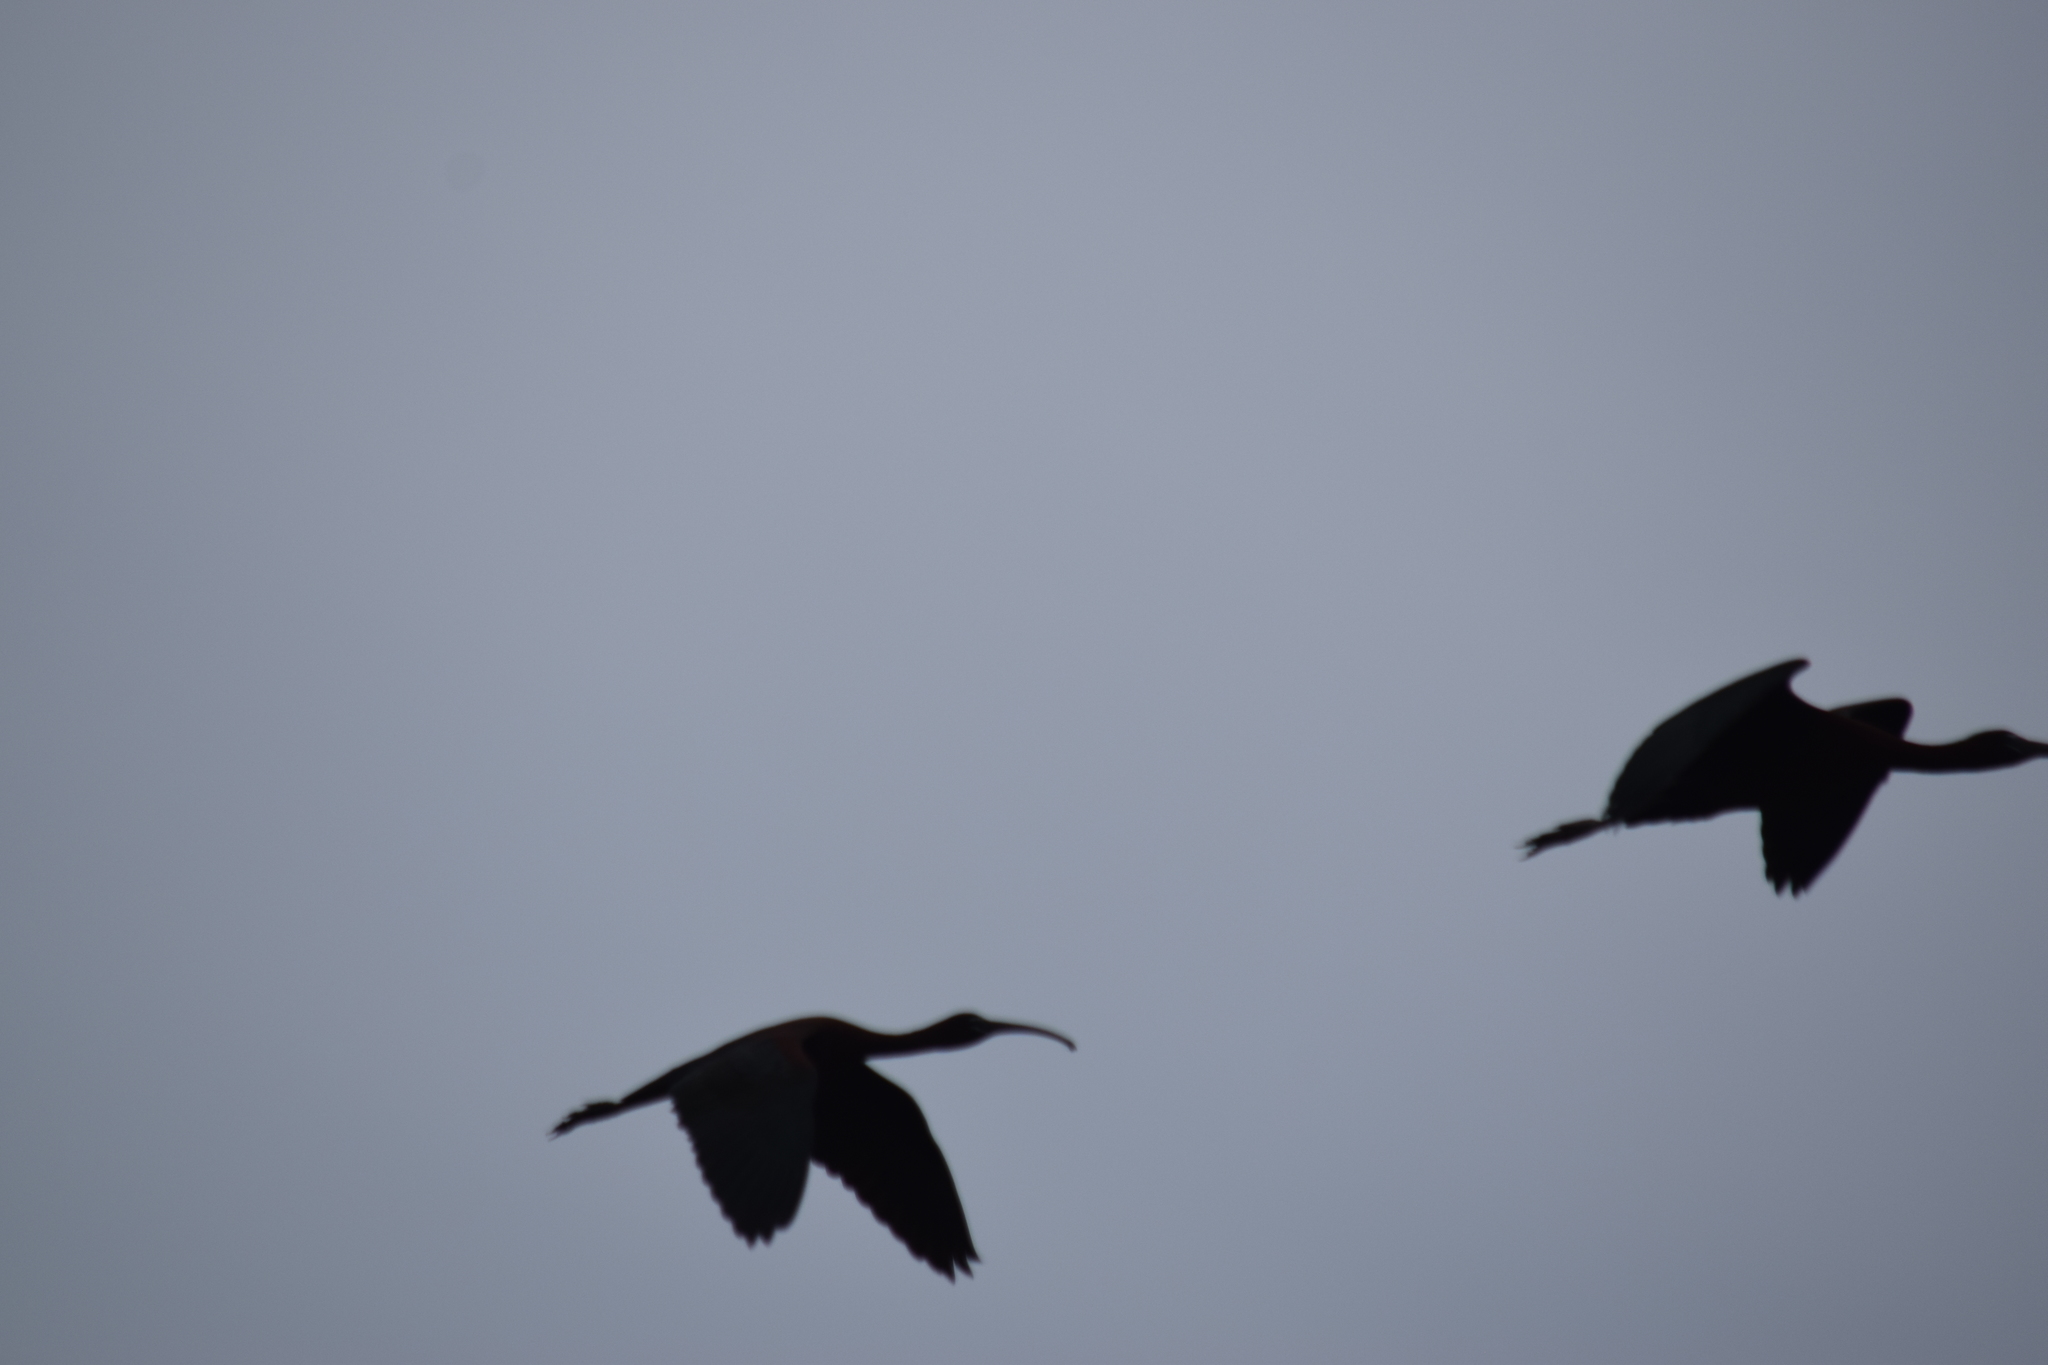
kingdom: Animalia
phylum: Chordata
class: Aves
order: Pelecaniformes
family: Threskiornithidae
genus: Plegadis
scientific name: Plegadis falcinellus
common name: Glossy ibis
